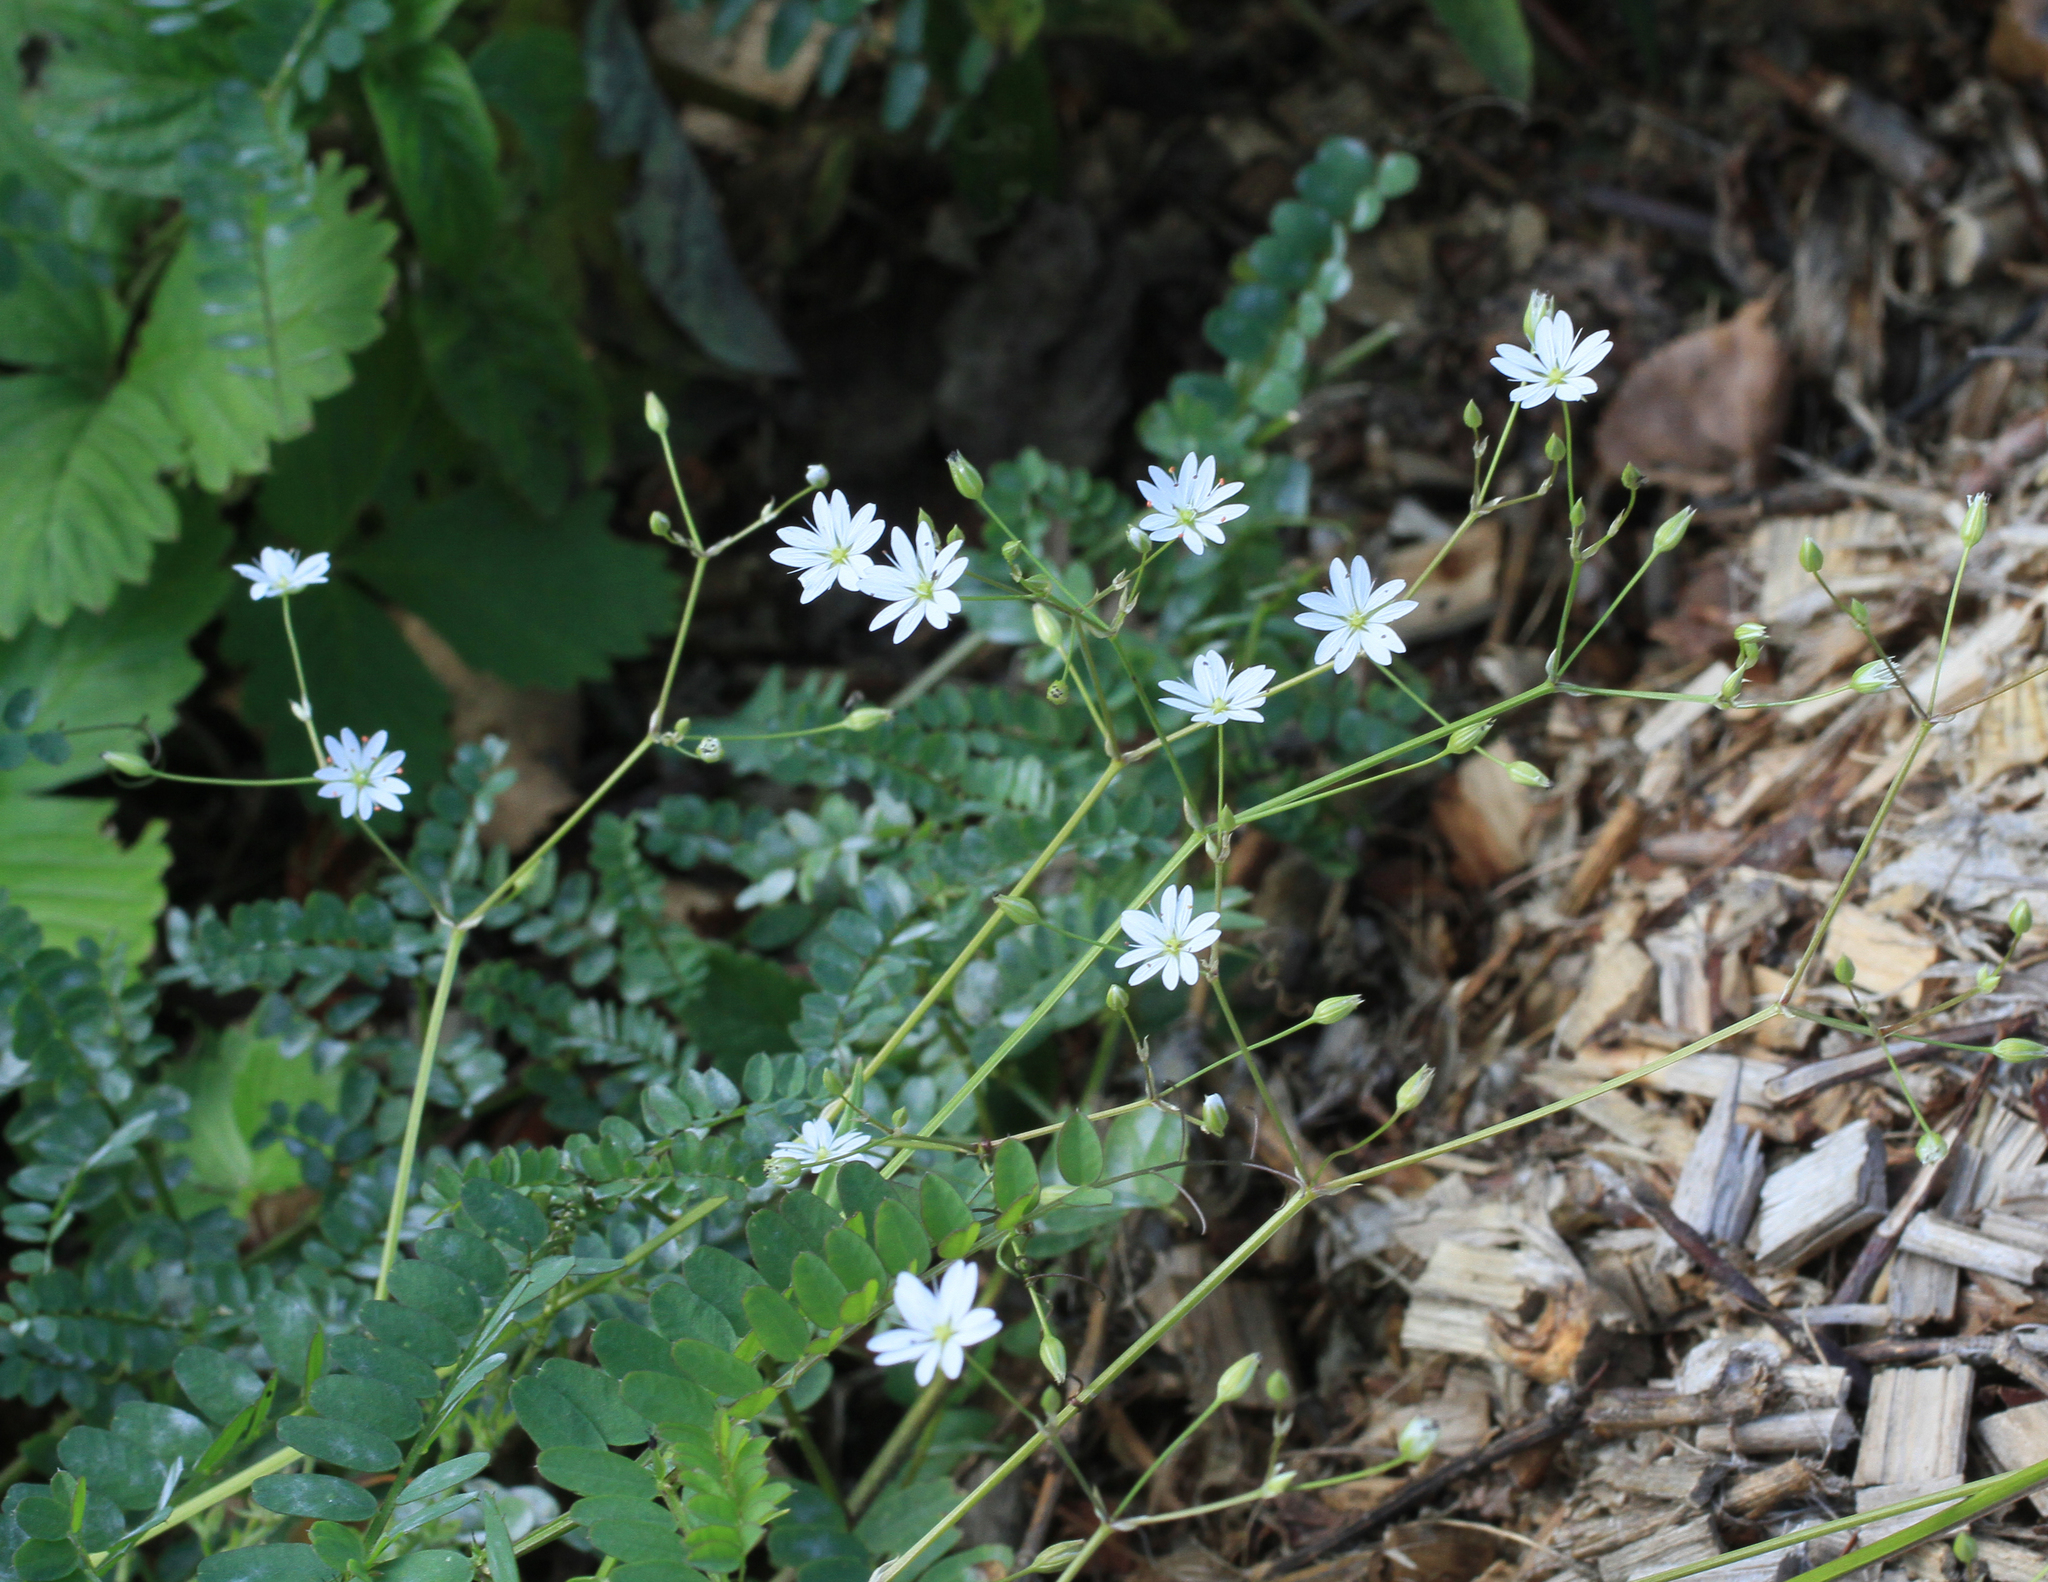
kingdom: Plantae
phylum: Tracheophyta
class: Magnoliopsida
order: Caryophyllales
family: Caryophyllaceae
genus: Stellaria
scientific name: Stellaria graminea
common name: Grass-like starwort
